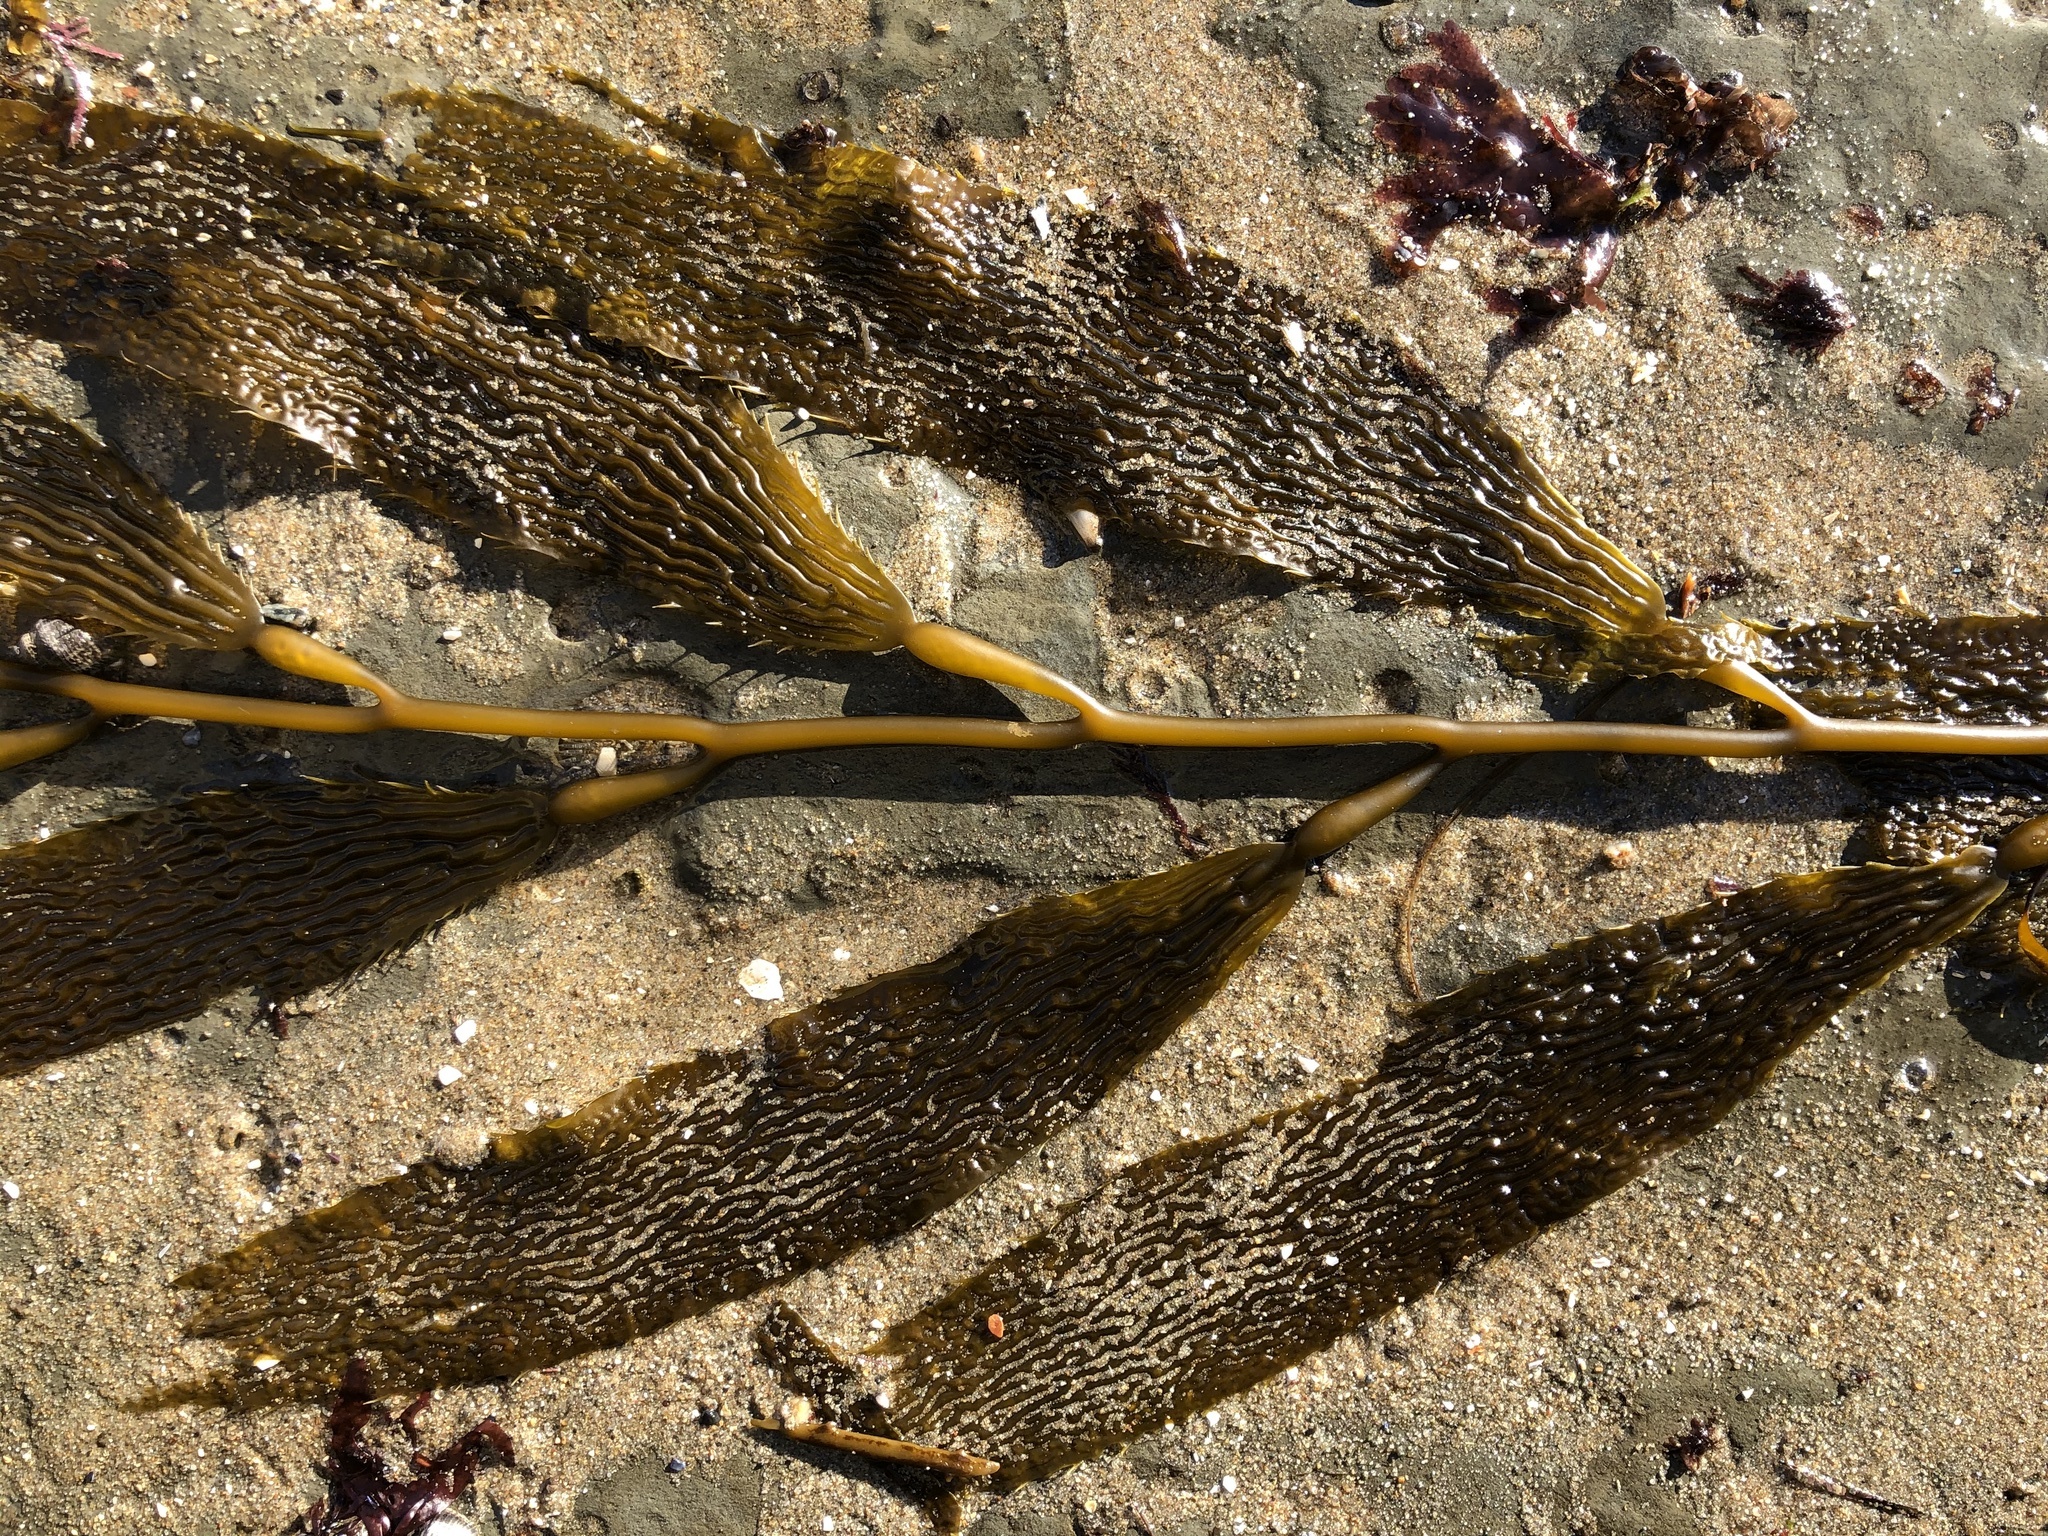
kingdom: Chromista
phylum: Ochrophyta
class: Phaeophyceae
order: Laminariales
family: Laminariaceae
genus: Macrocystis
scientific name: Macrocystis pyrifera
